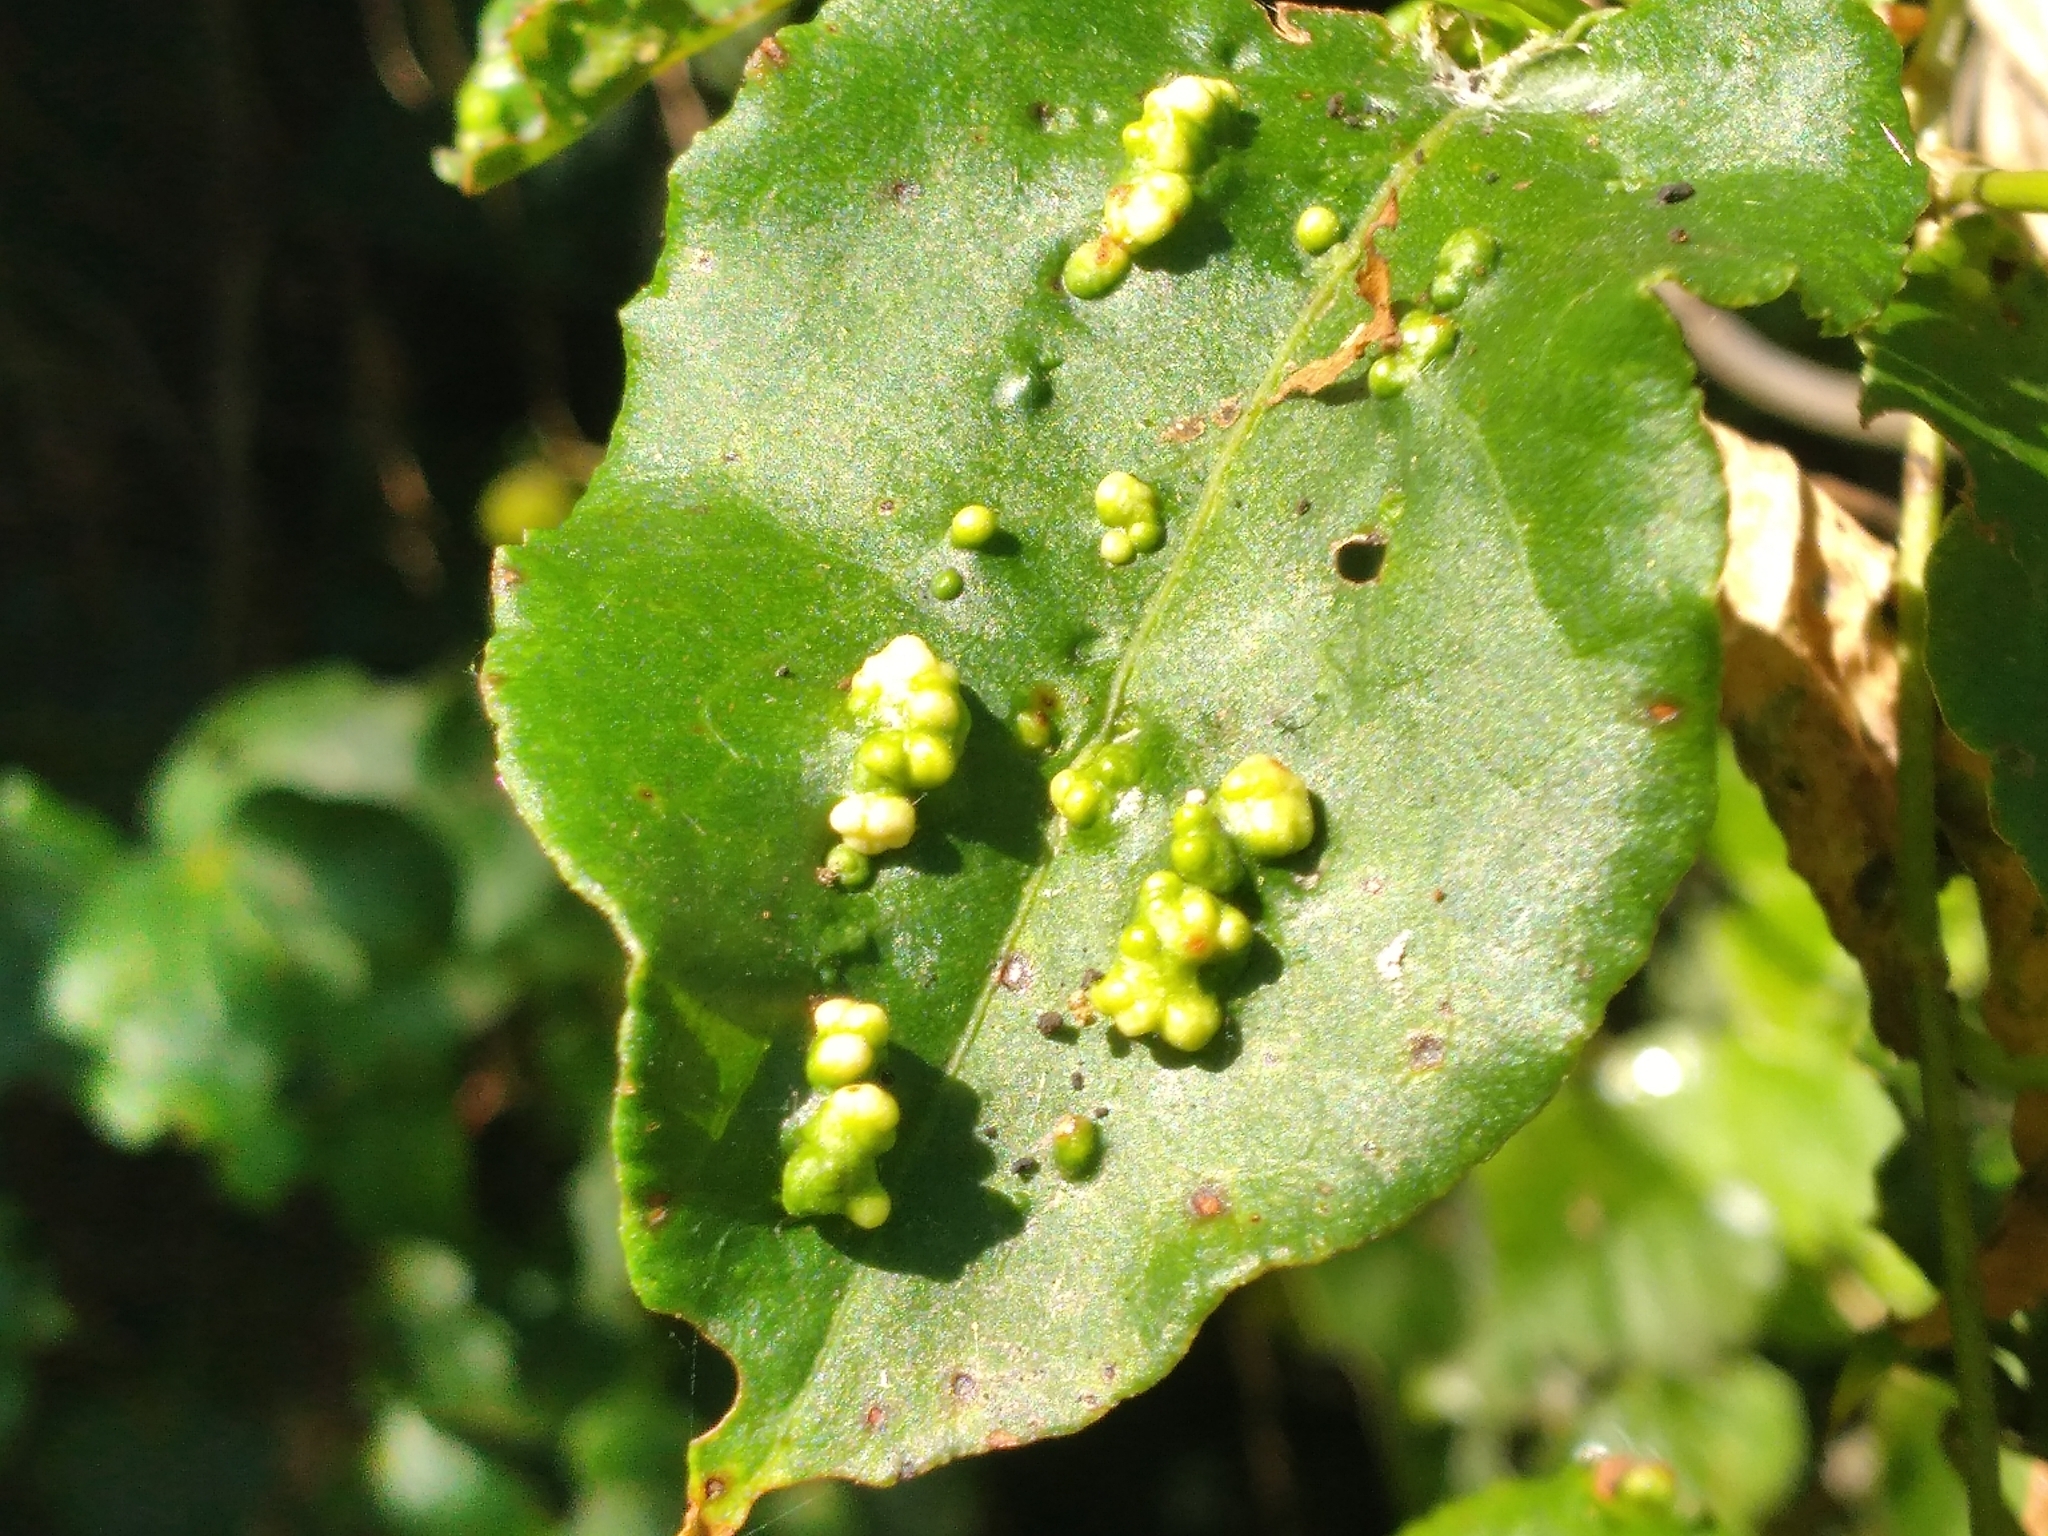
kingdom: Animalia
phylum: Arthropoda
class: Arachnida
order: Trombidiformes
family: Eriophyidae
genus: Aceria
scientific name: Aceria lamii
